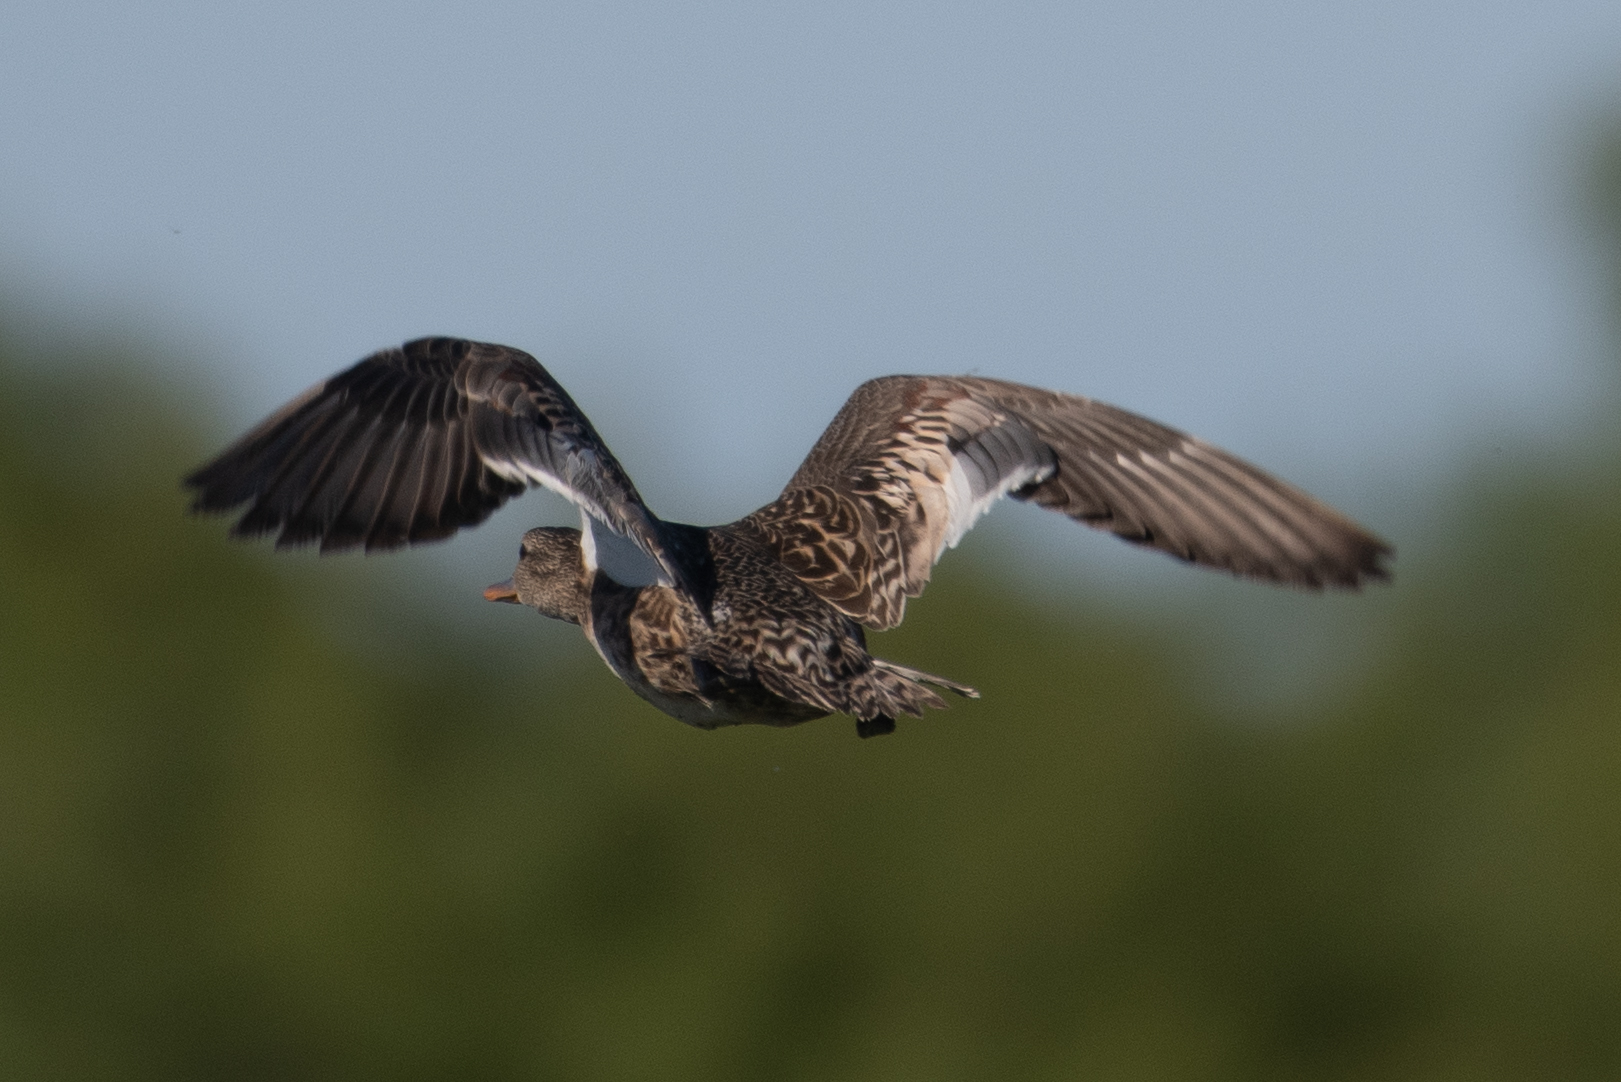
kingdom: Animalia
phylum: Chordata
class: Aves
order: Anseriformes
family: Anatidae
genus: Anas
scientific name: Anas platyrhynchos
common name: Mallard
